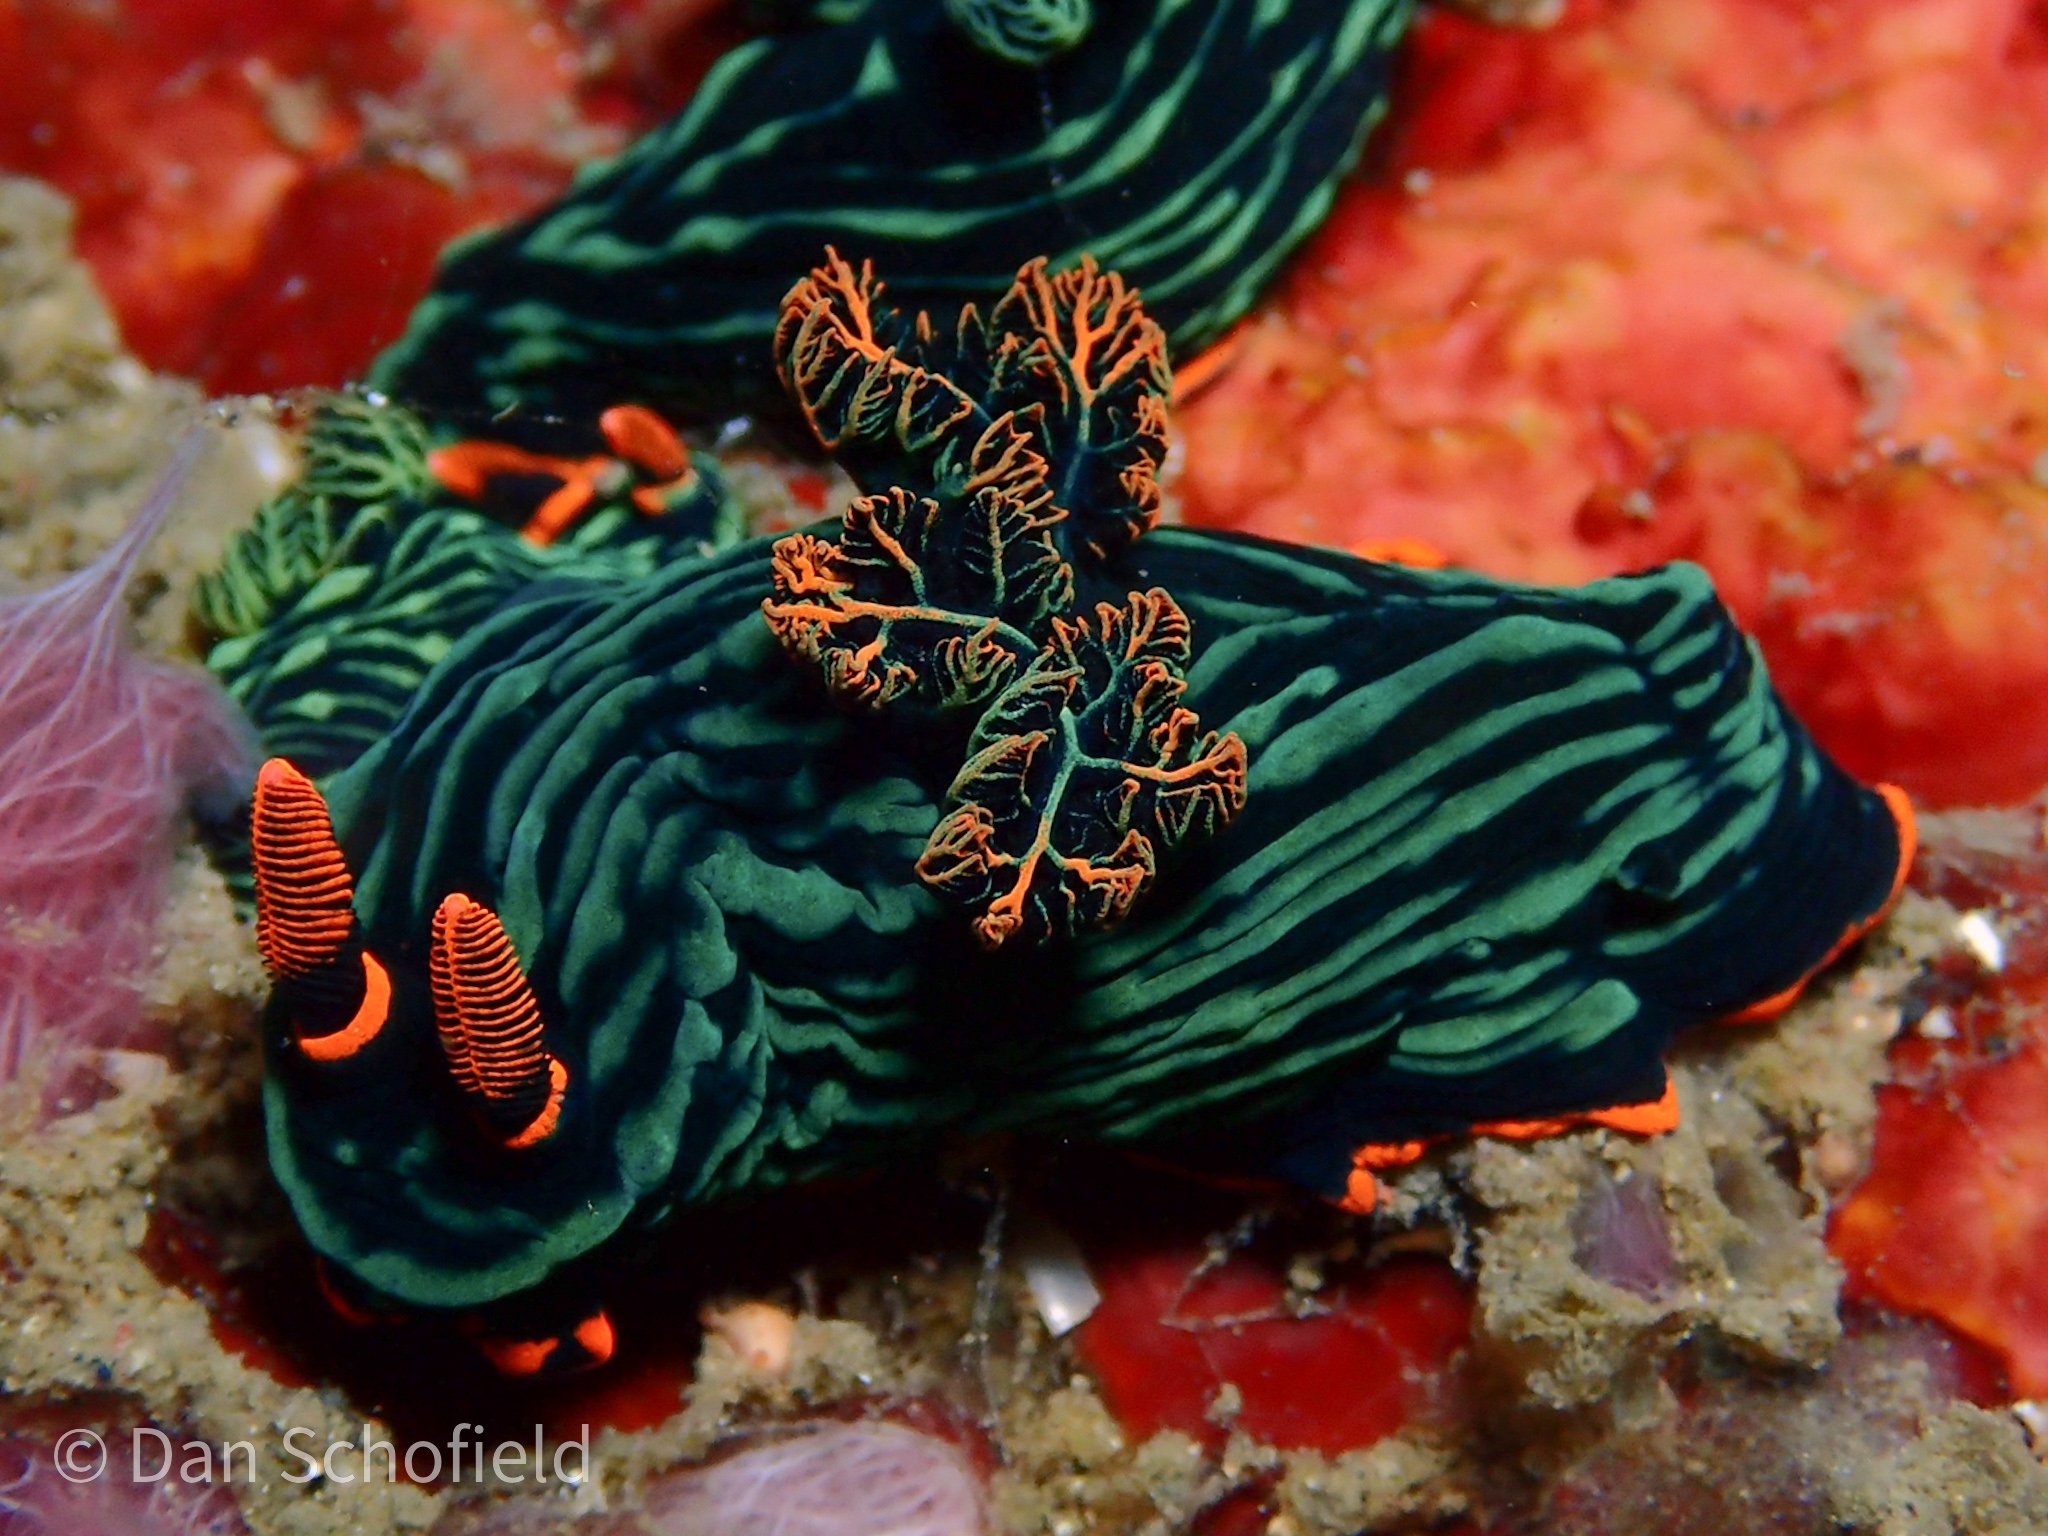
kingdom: Animalia
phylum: Mollusca
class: Gastropoda
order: Nudibranchia
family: Polyceridae
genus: Nembrotha
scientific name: Nembrotha kubaryana
